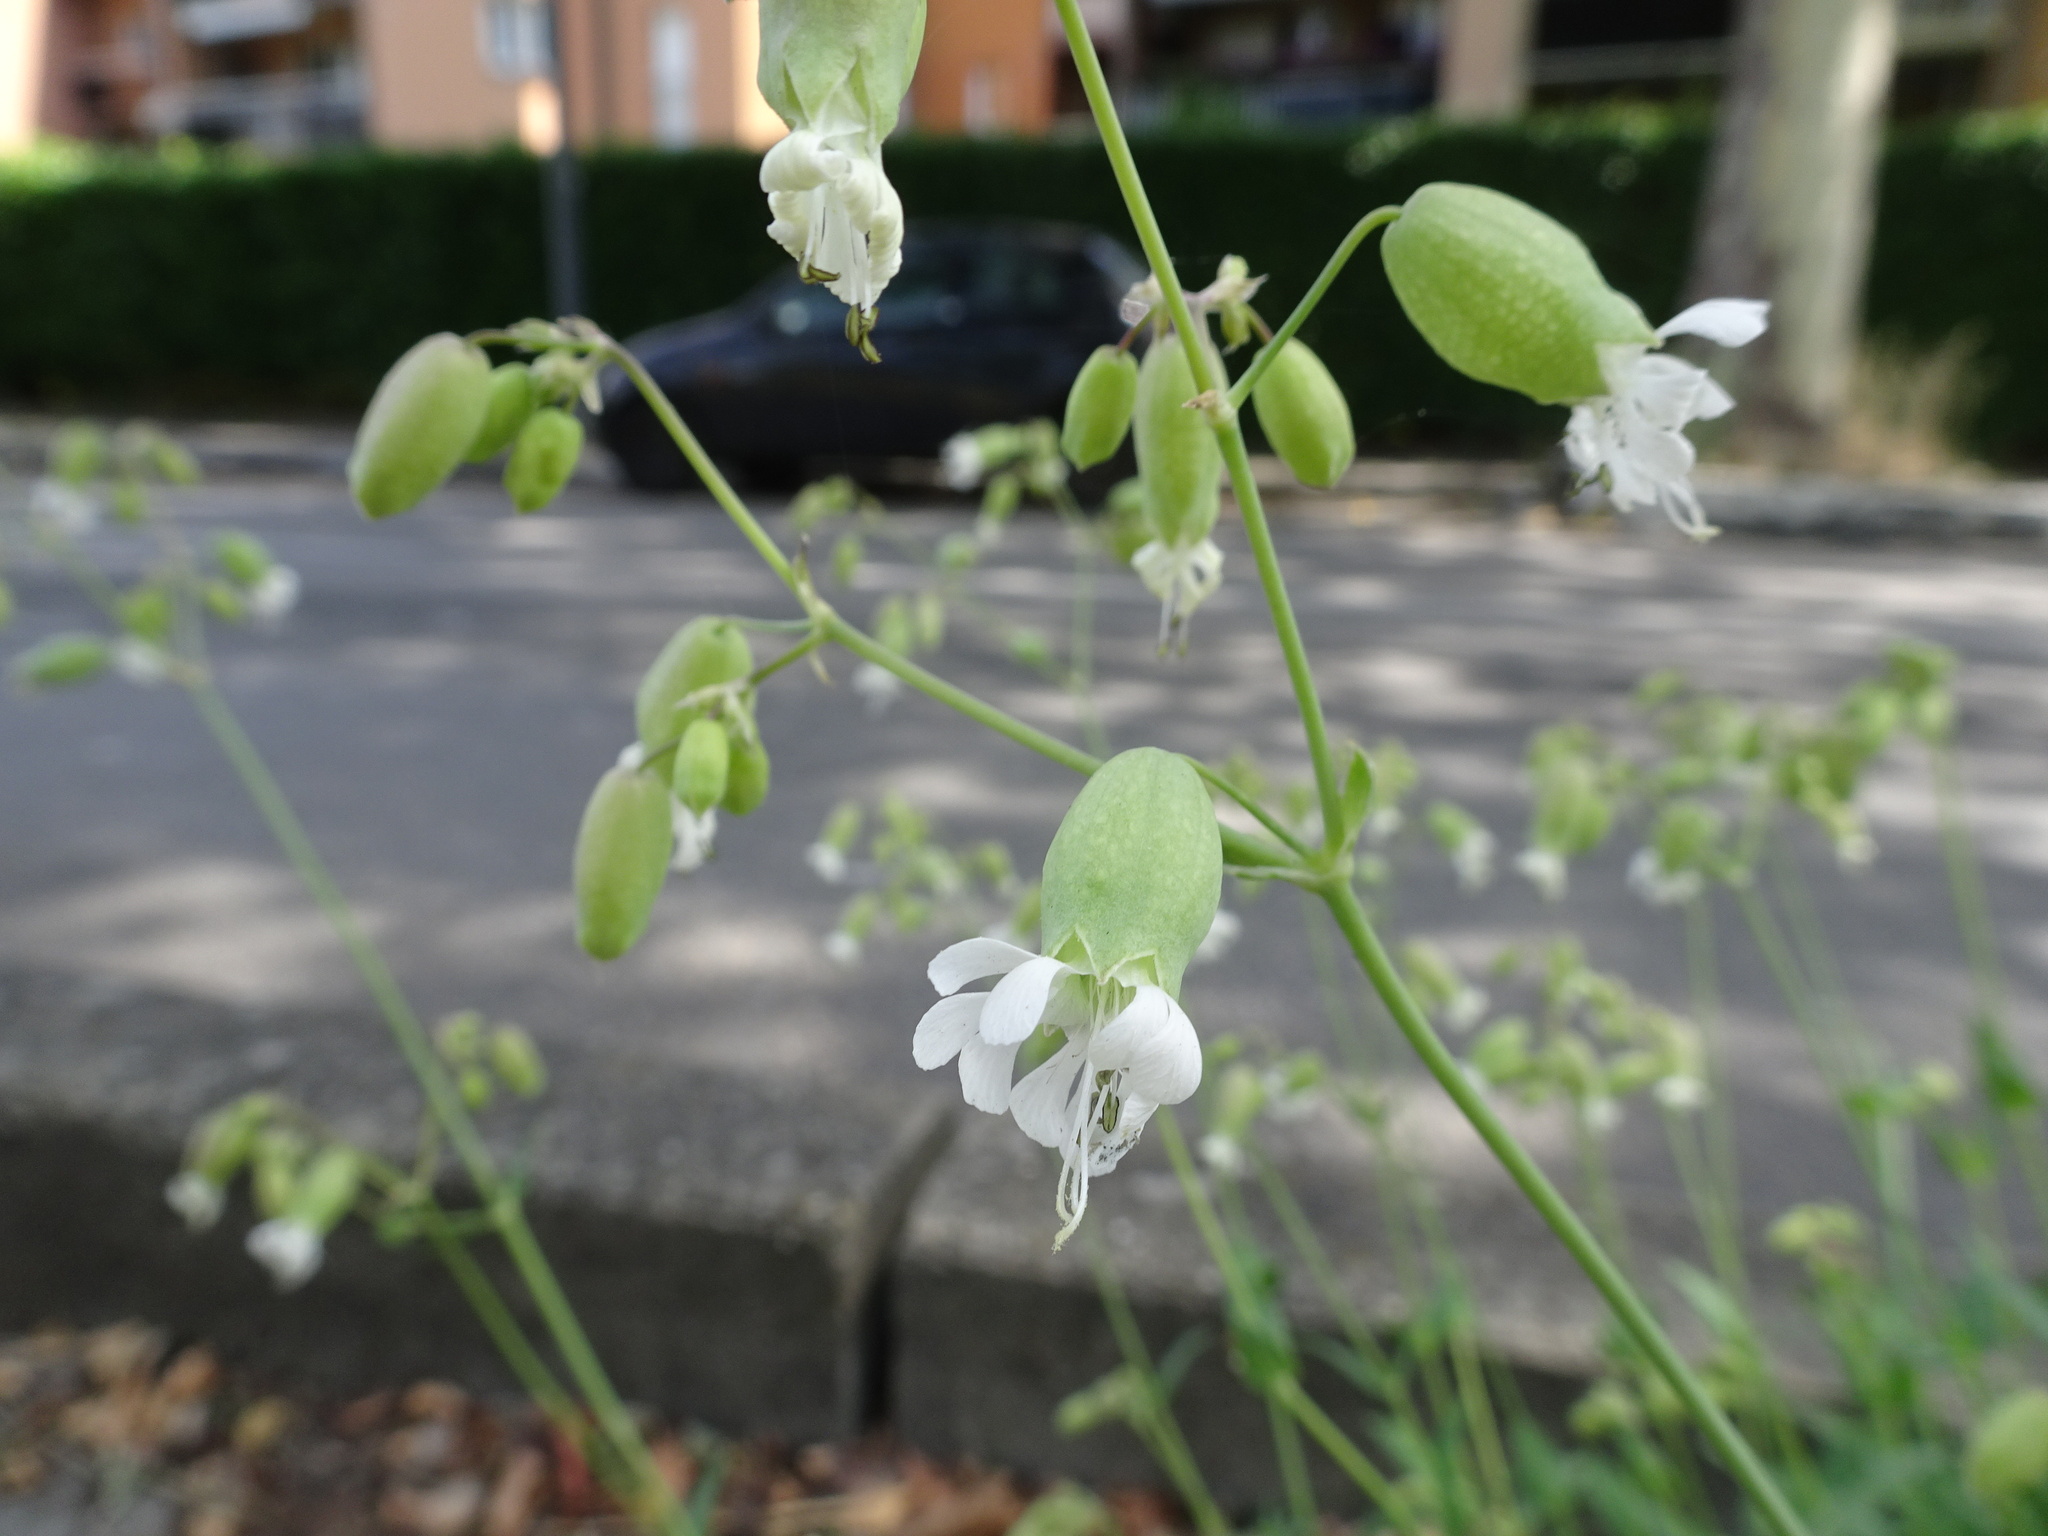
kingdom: Plantae
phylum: Tracheophyta
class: Magnoliopsida
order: Caryophyllales
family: Caryophyllaceae
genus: Silene
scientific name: Silene vulgaris
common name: Bladder campion
